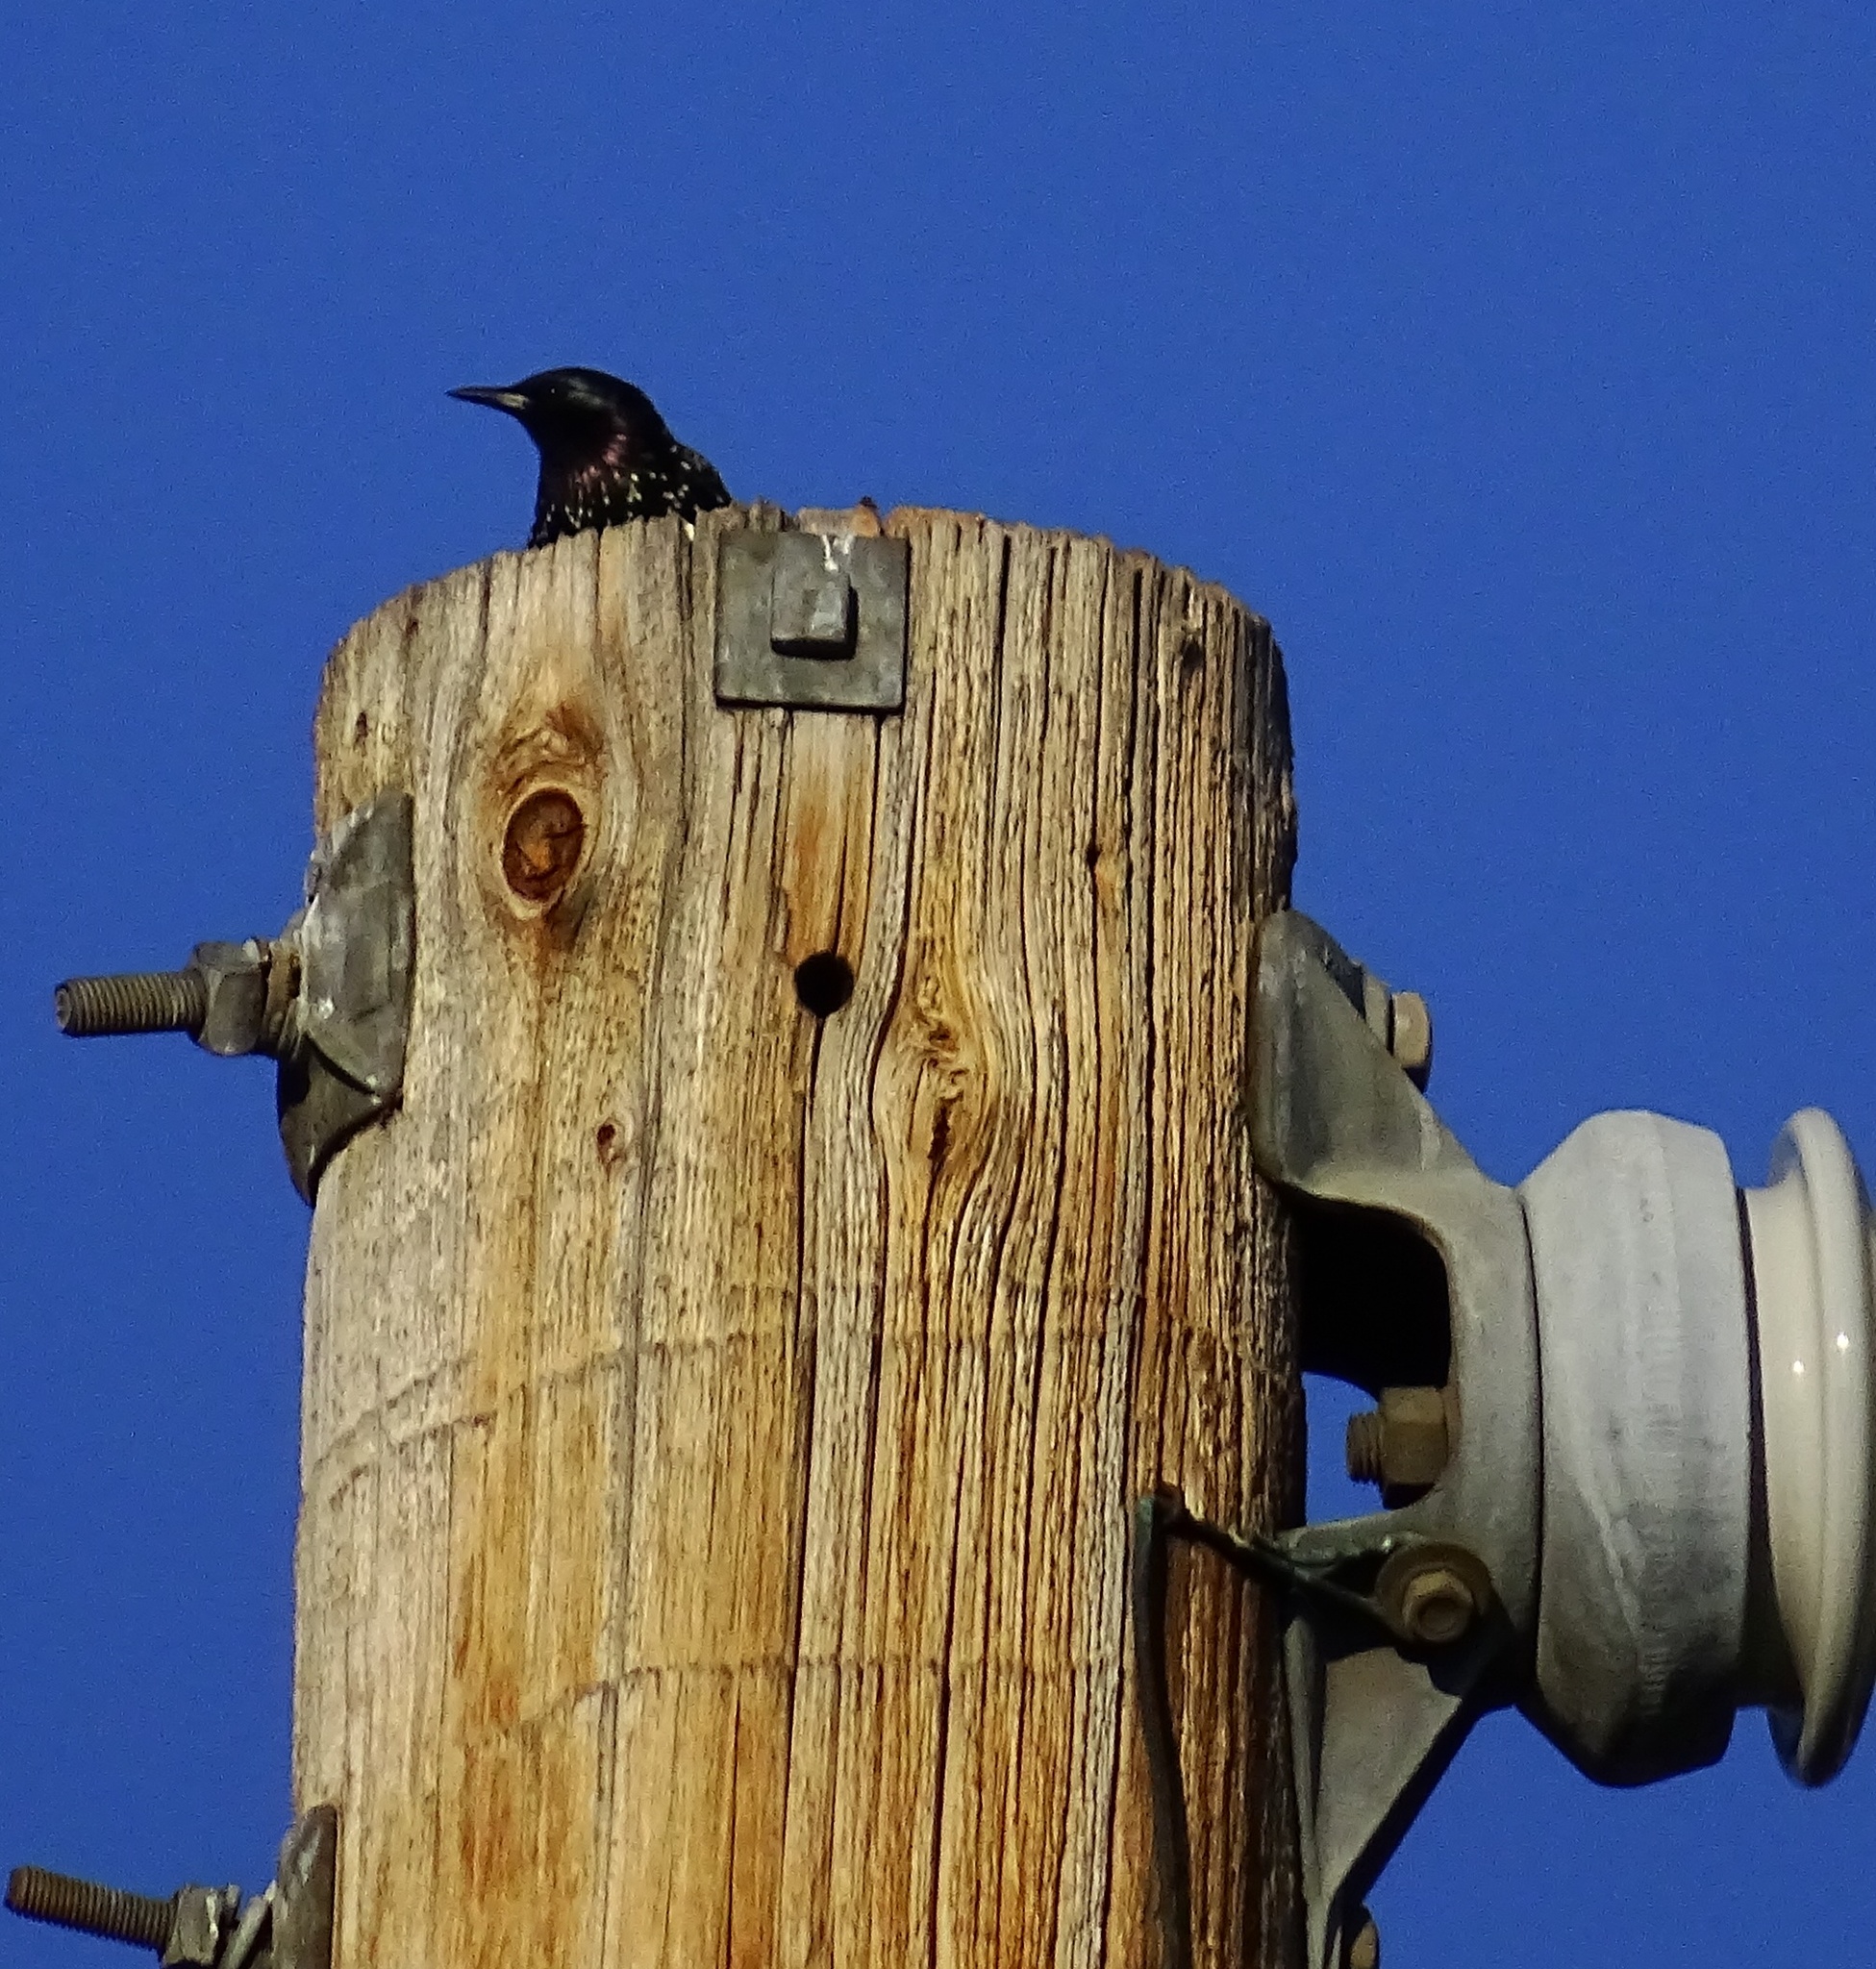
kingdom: Animalia
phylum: Chordata
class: Aves
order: Passeriformes
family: Sturnidae
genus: Sturnus
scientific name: Sturnus vulgaris
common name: Common starling
